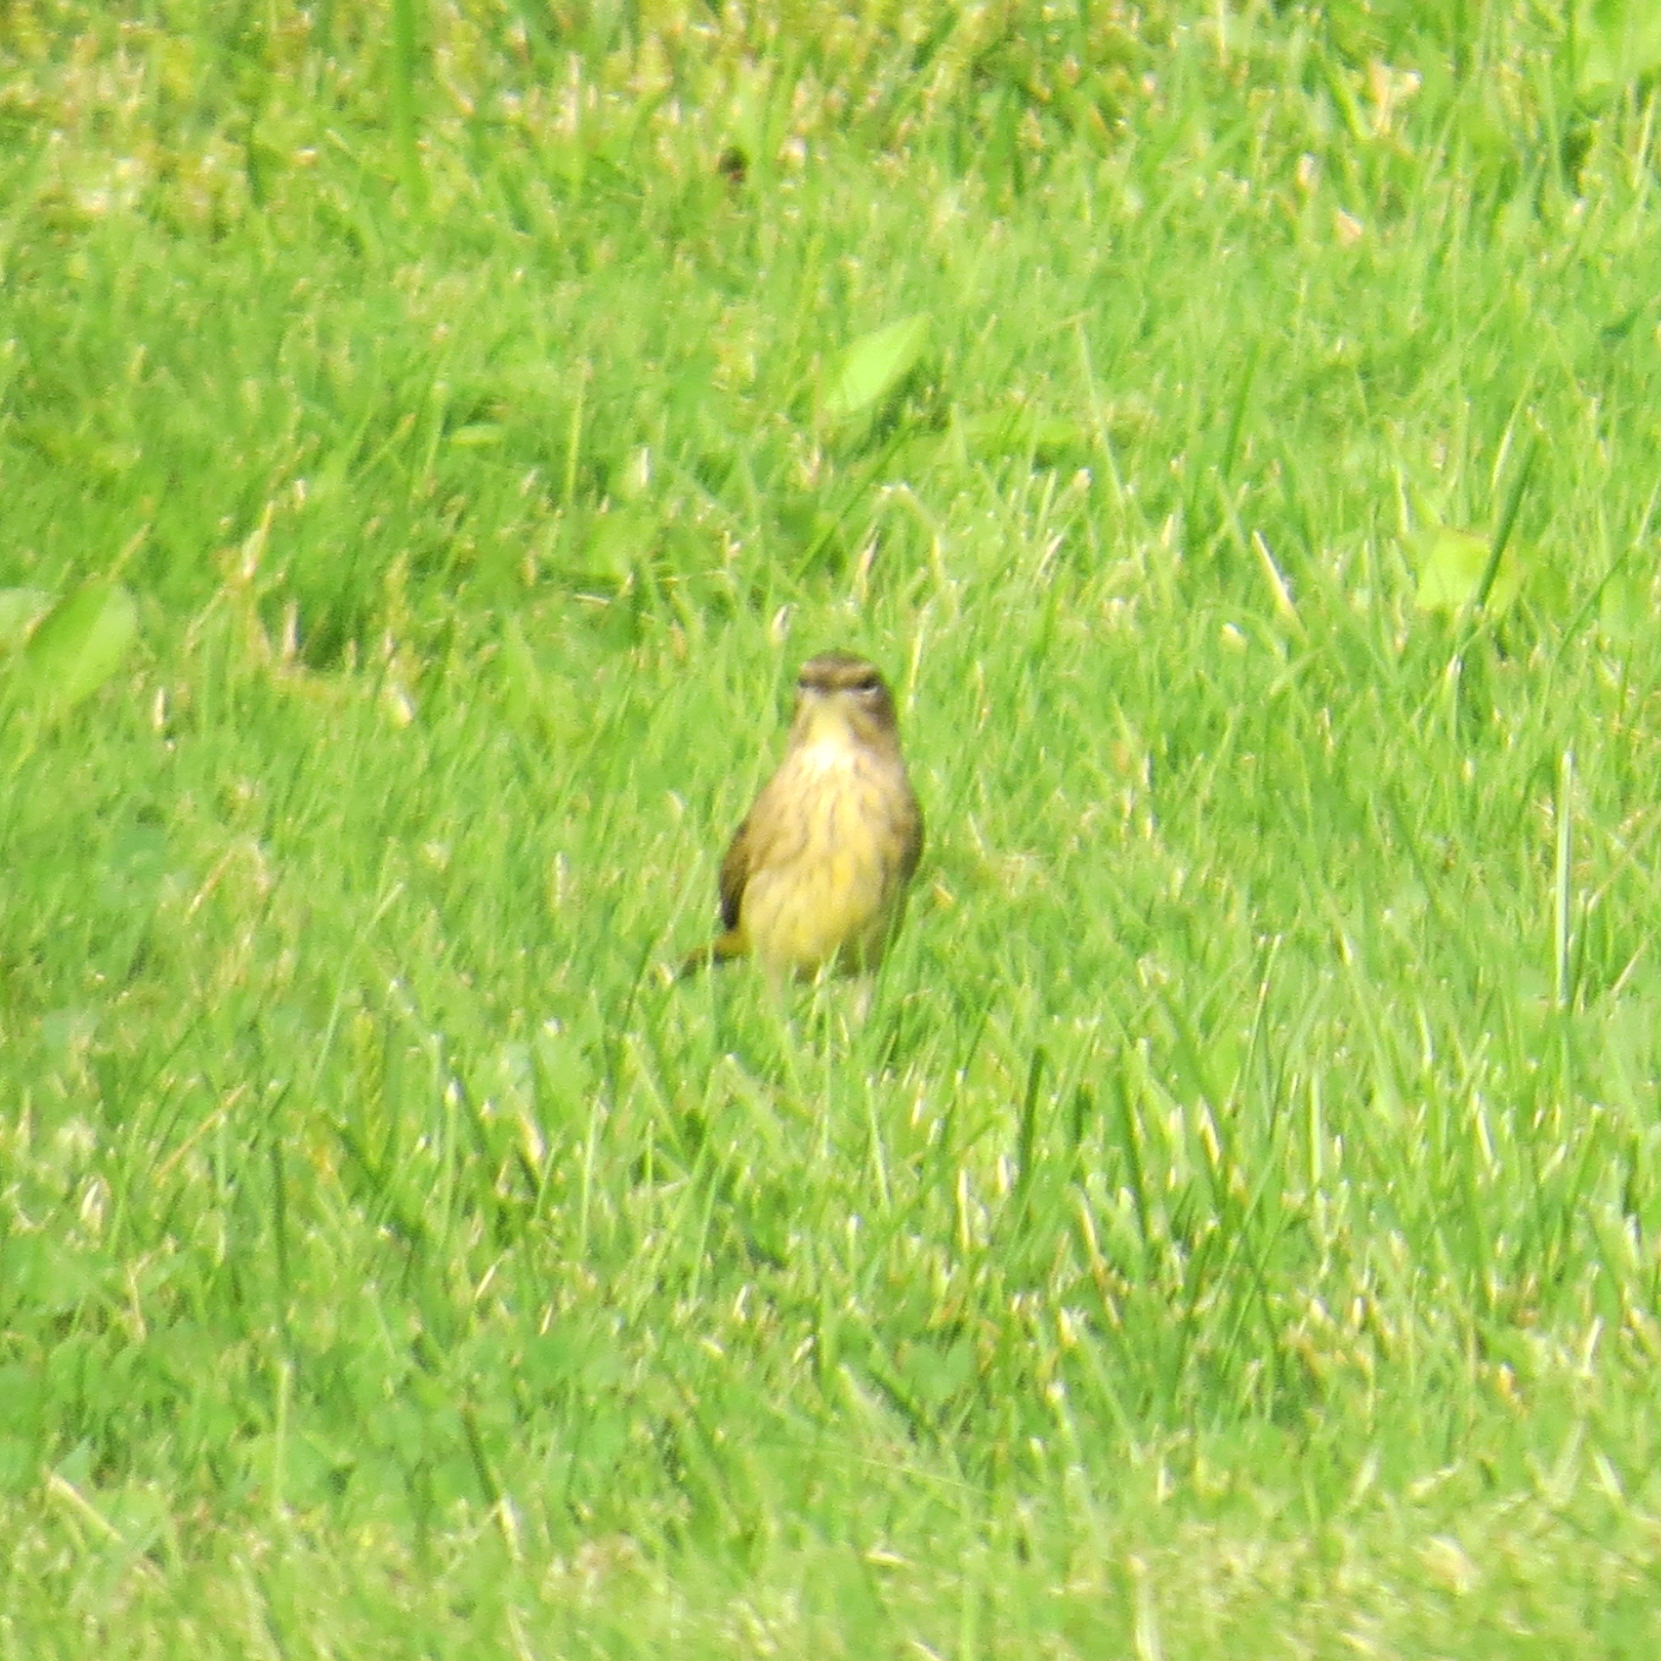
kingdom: Animalia
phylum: Chordata
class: Aves
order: Passeriformes
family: Parulidae
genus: Setophaga
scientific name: Setophaga palmarum
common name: Palm warbler
